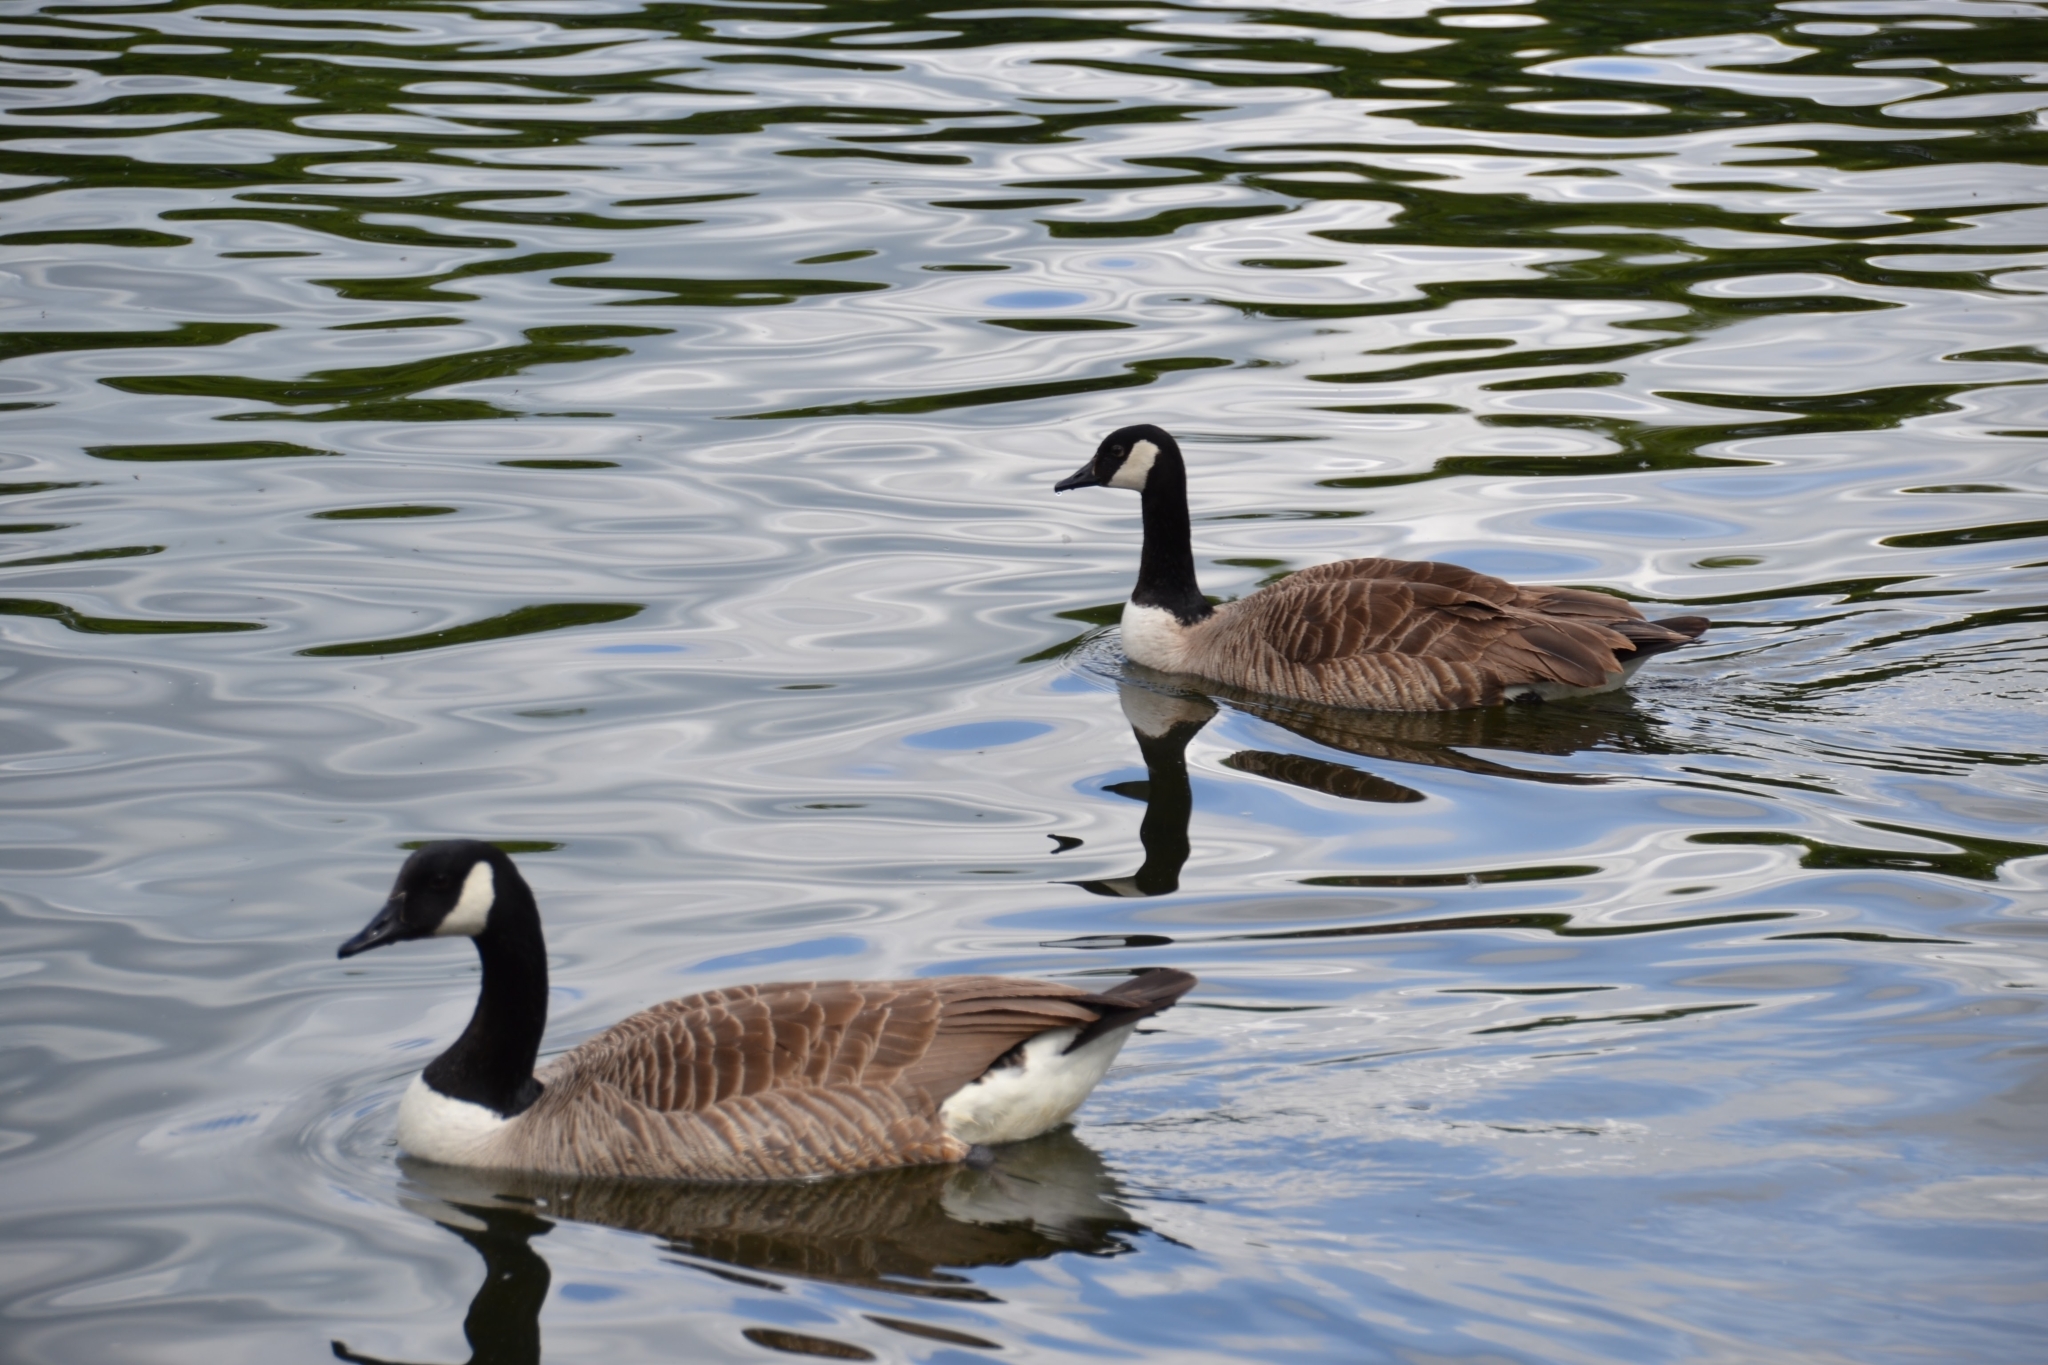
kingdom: Animalia
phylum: Chordata
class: Aves
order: Anseriformes
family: Anatidae
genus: Branta
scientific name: Branta canadensis
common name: Canada goose
